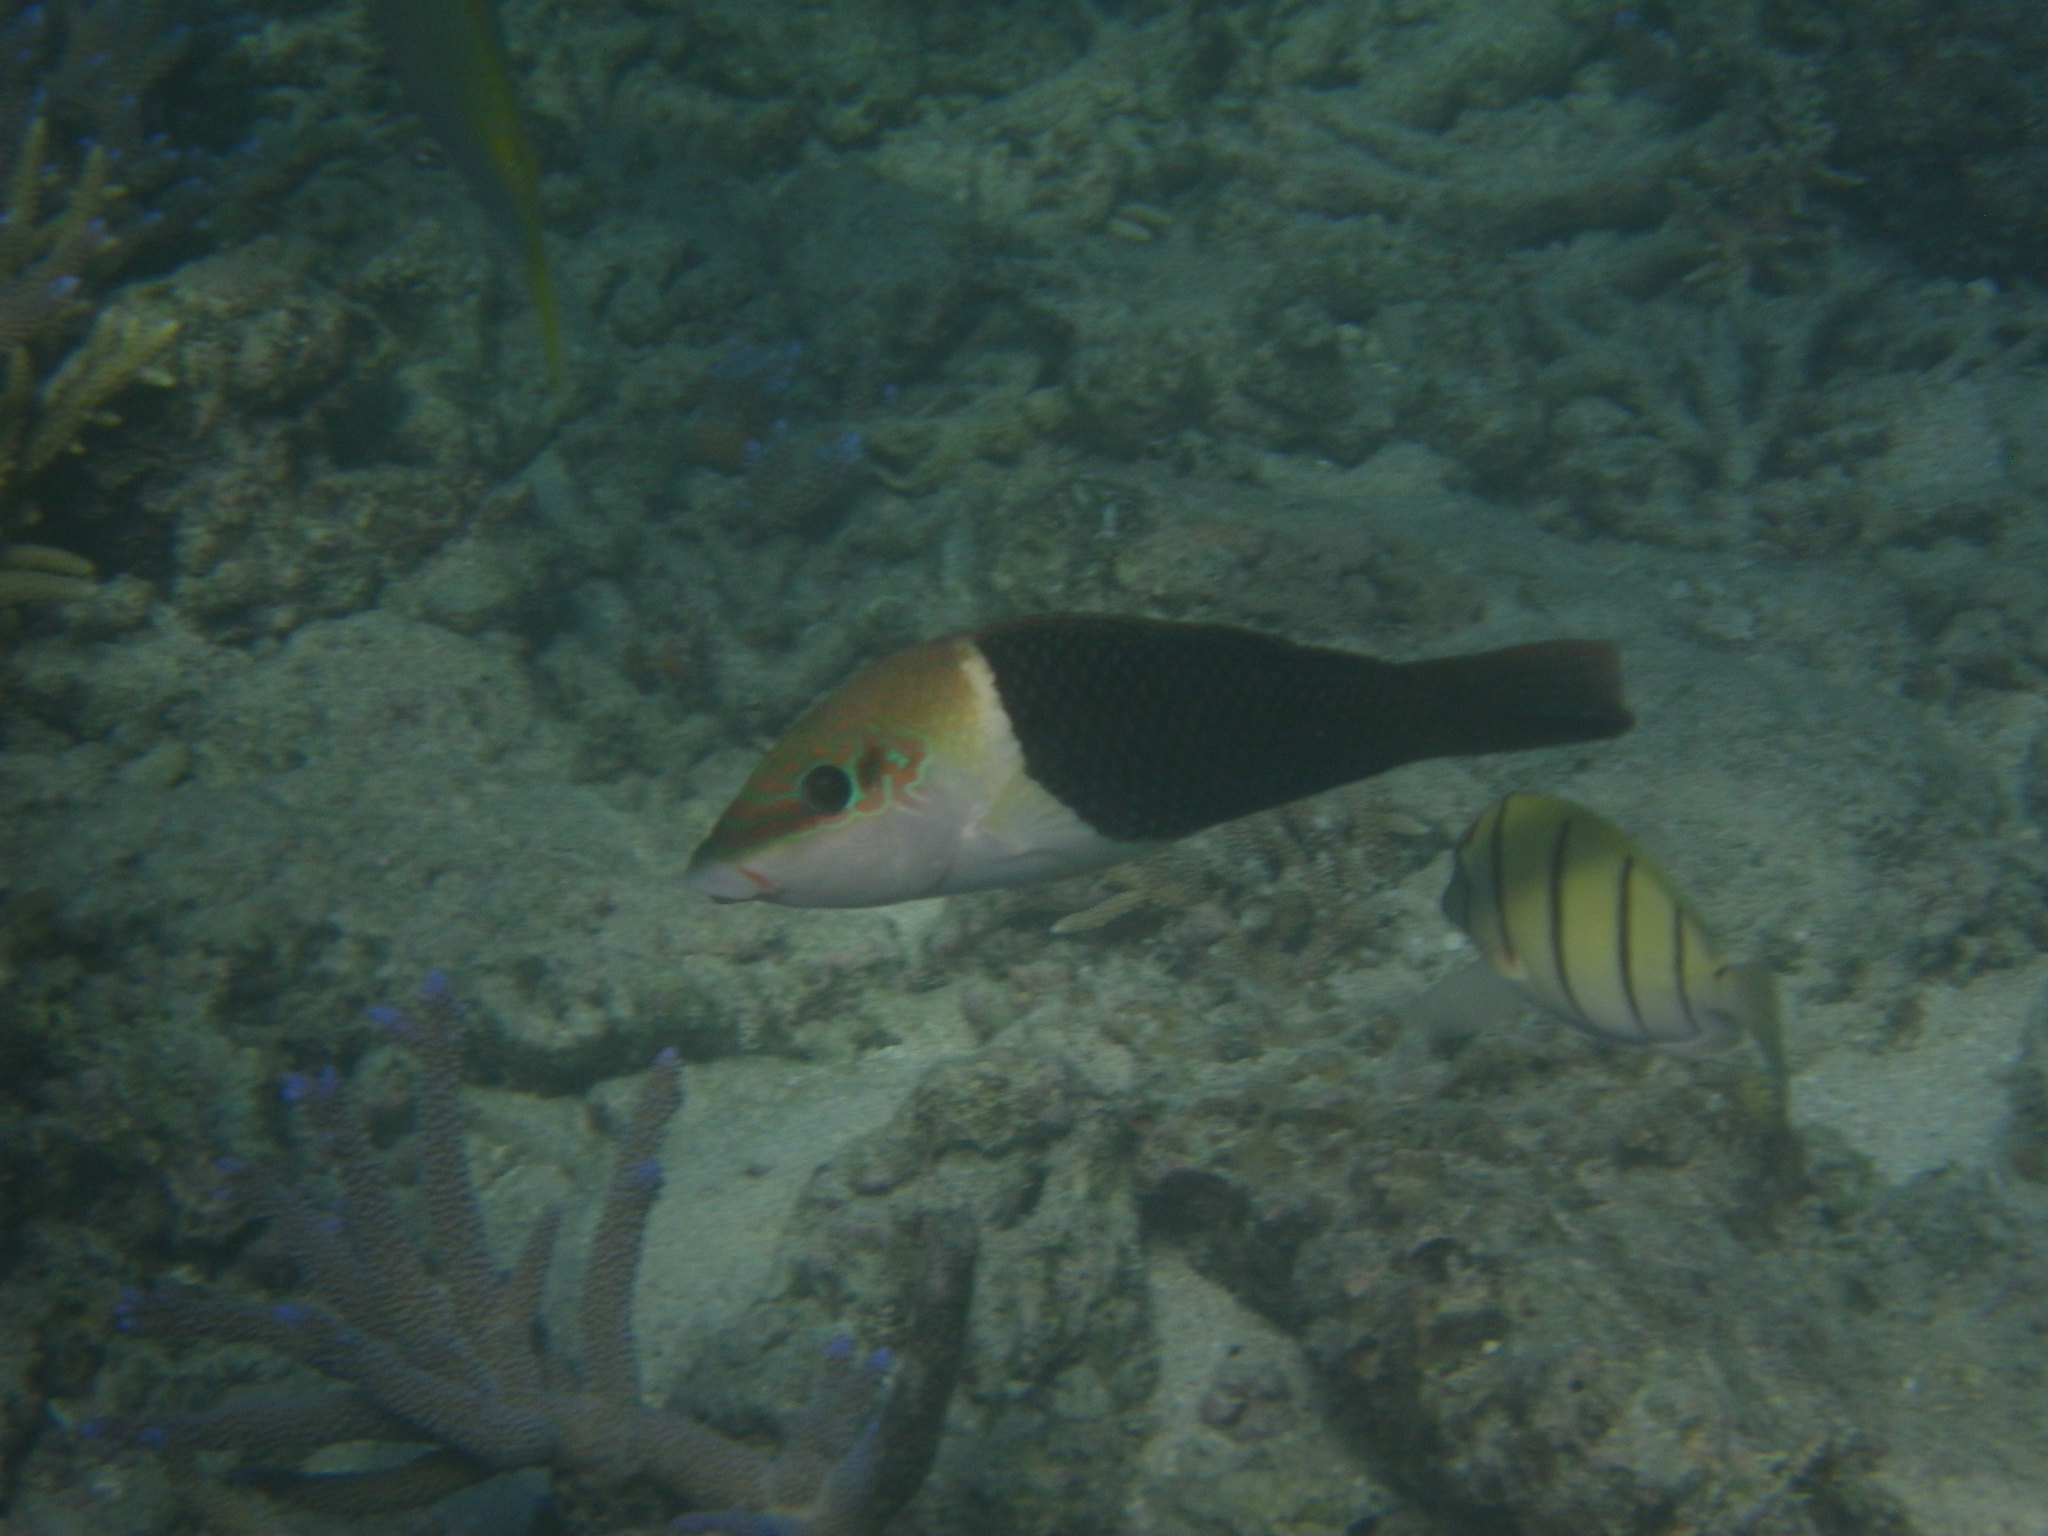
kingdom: Animalia
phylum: Chordata
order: Perciformes
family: Labridae
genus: Hemigymnus
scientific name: Hemigymnus melapterus
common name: Blackeye thicklip
